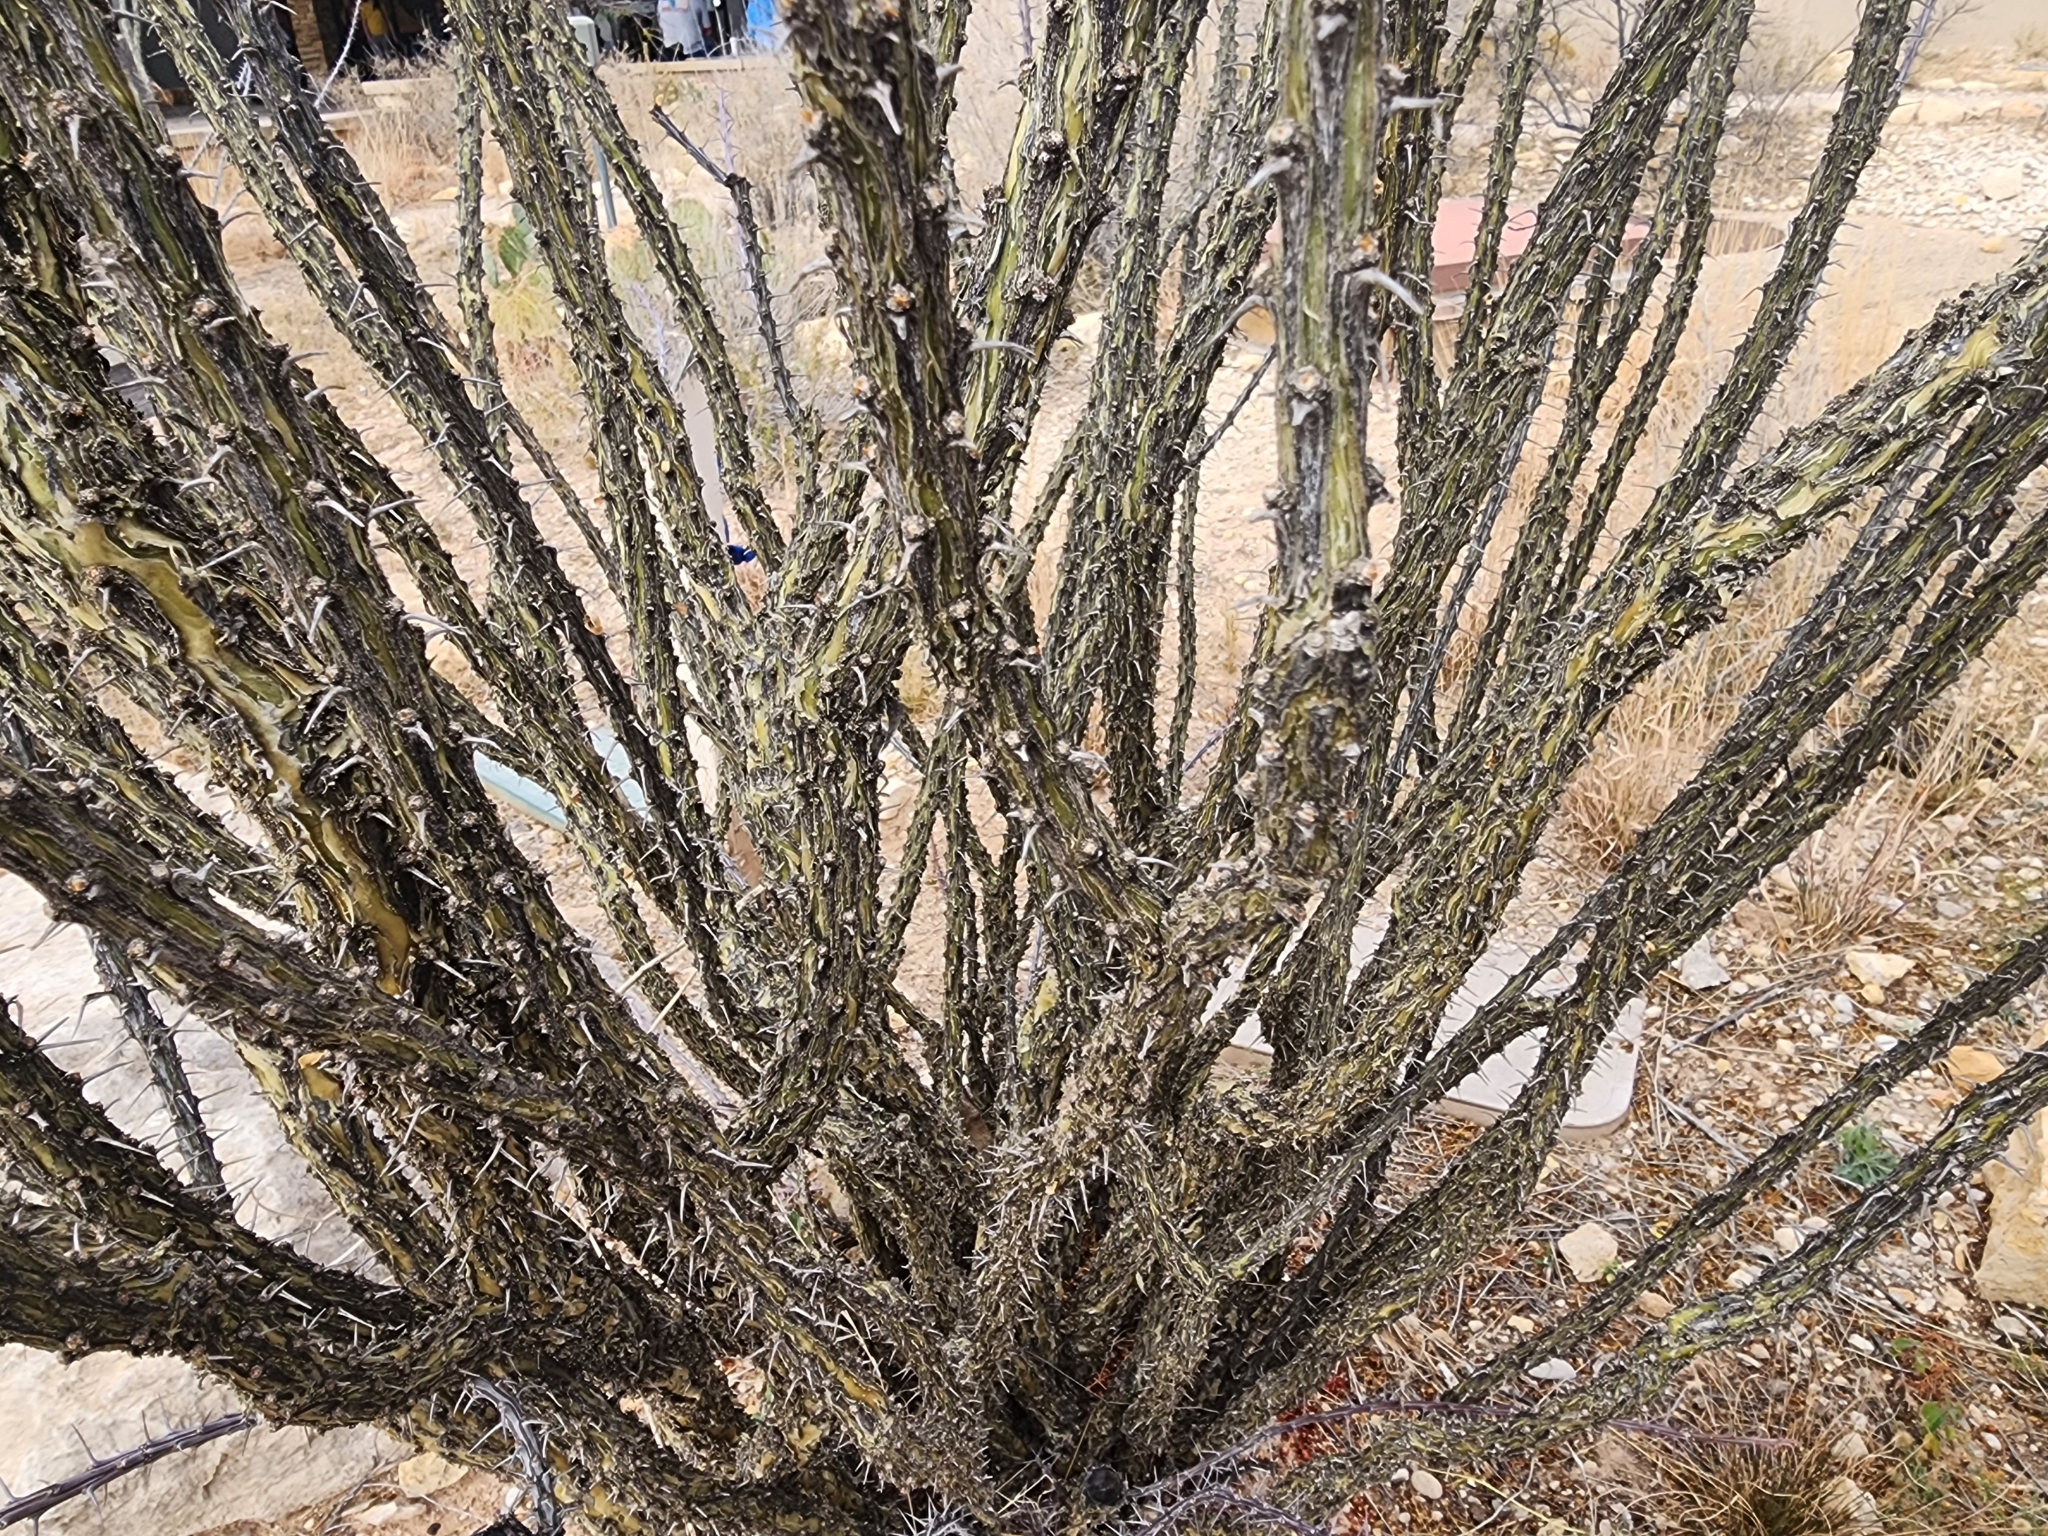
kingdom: Plantae
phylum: Tracheophyta
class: Magnoliopsida
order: Ericales
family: Fouquieriaceae
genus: Fouquieria
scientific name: Fouquieria splendens
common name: Vine-cactus
